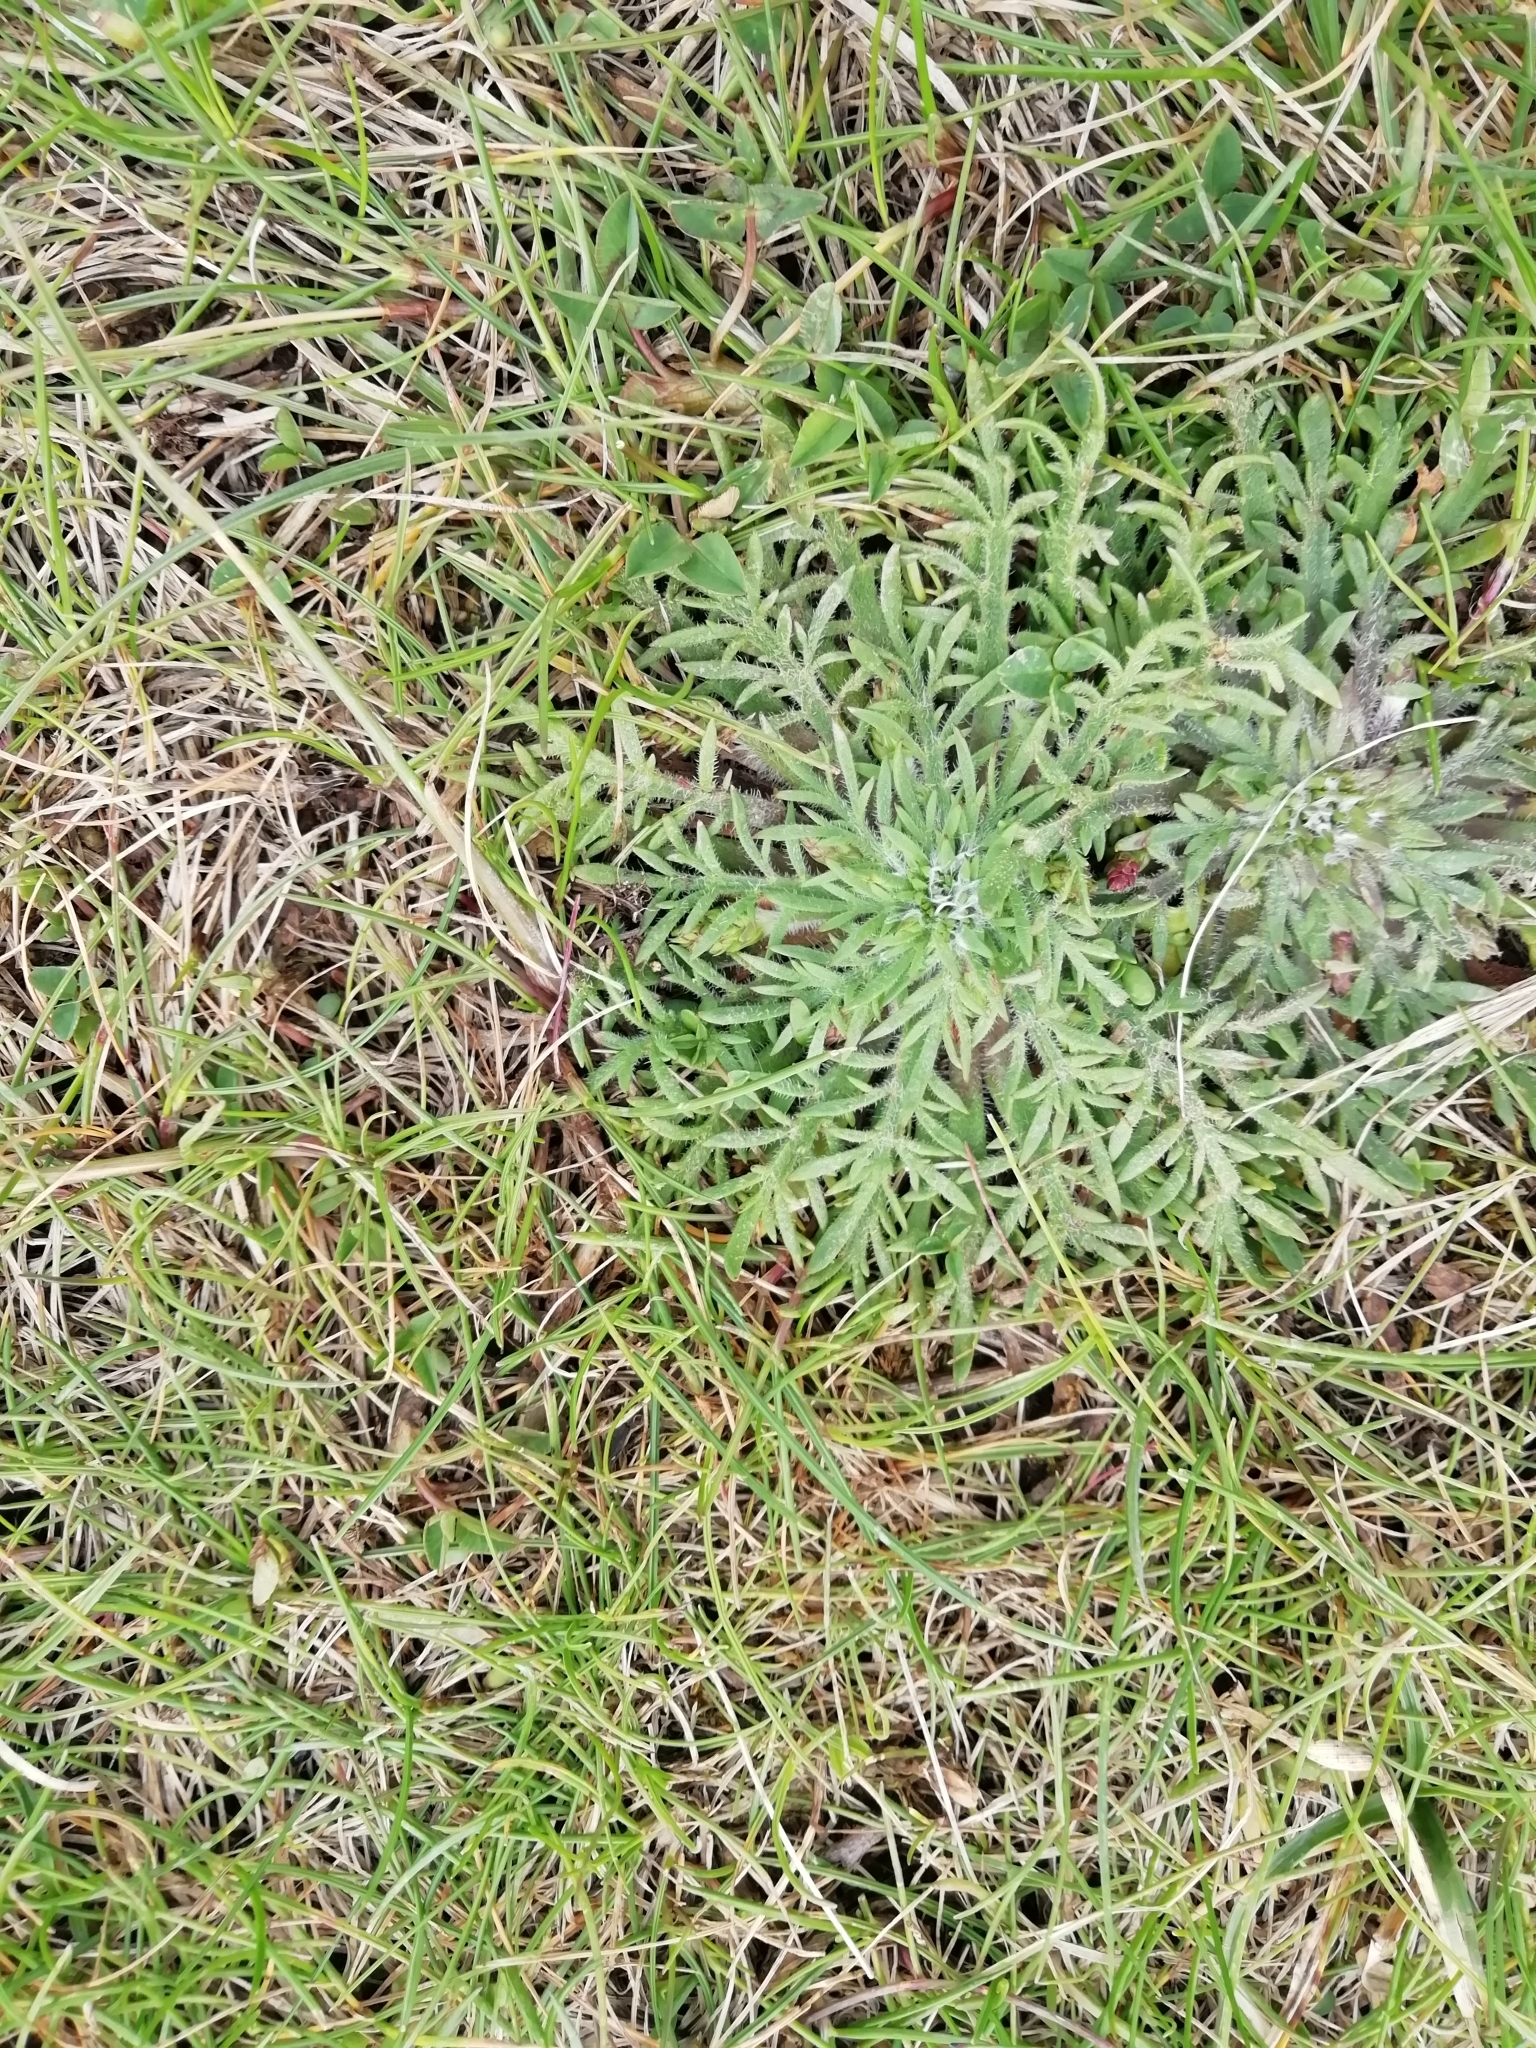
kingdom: Plantae
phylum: Tracheophyta
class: Magnoliopsida
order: Lamiales
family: Plantaginaceae
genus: Plantago
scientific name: Plantago coronopus
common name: Buck's-horn plantain
